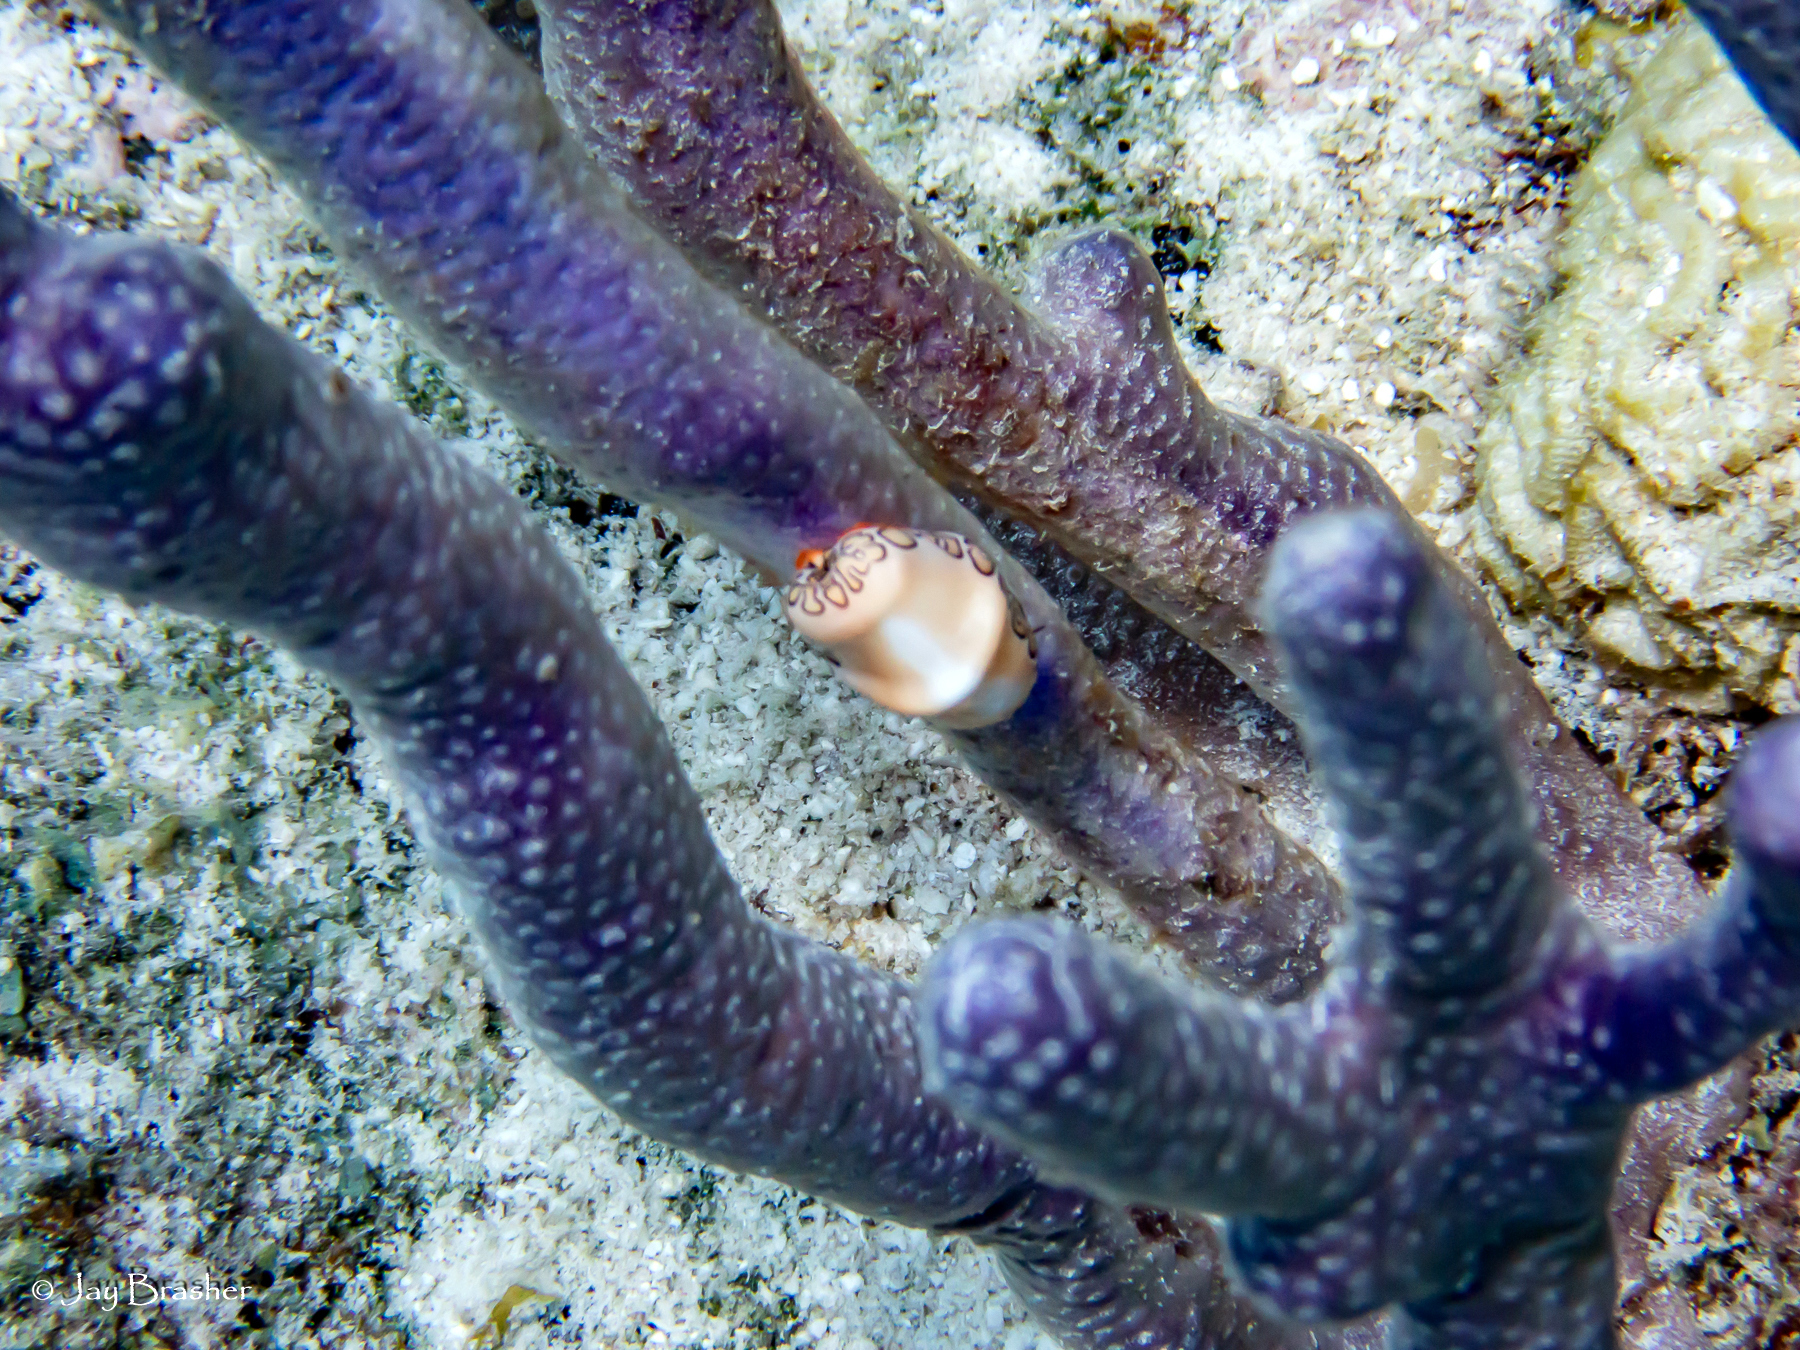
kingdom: Animalia
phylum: Mollusca
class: Gastropoda
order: Littorinimorpha
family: Ovulidae
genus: Cyphoma
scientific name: Cyphoma gibbosum
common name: Flamingo tongue
